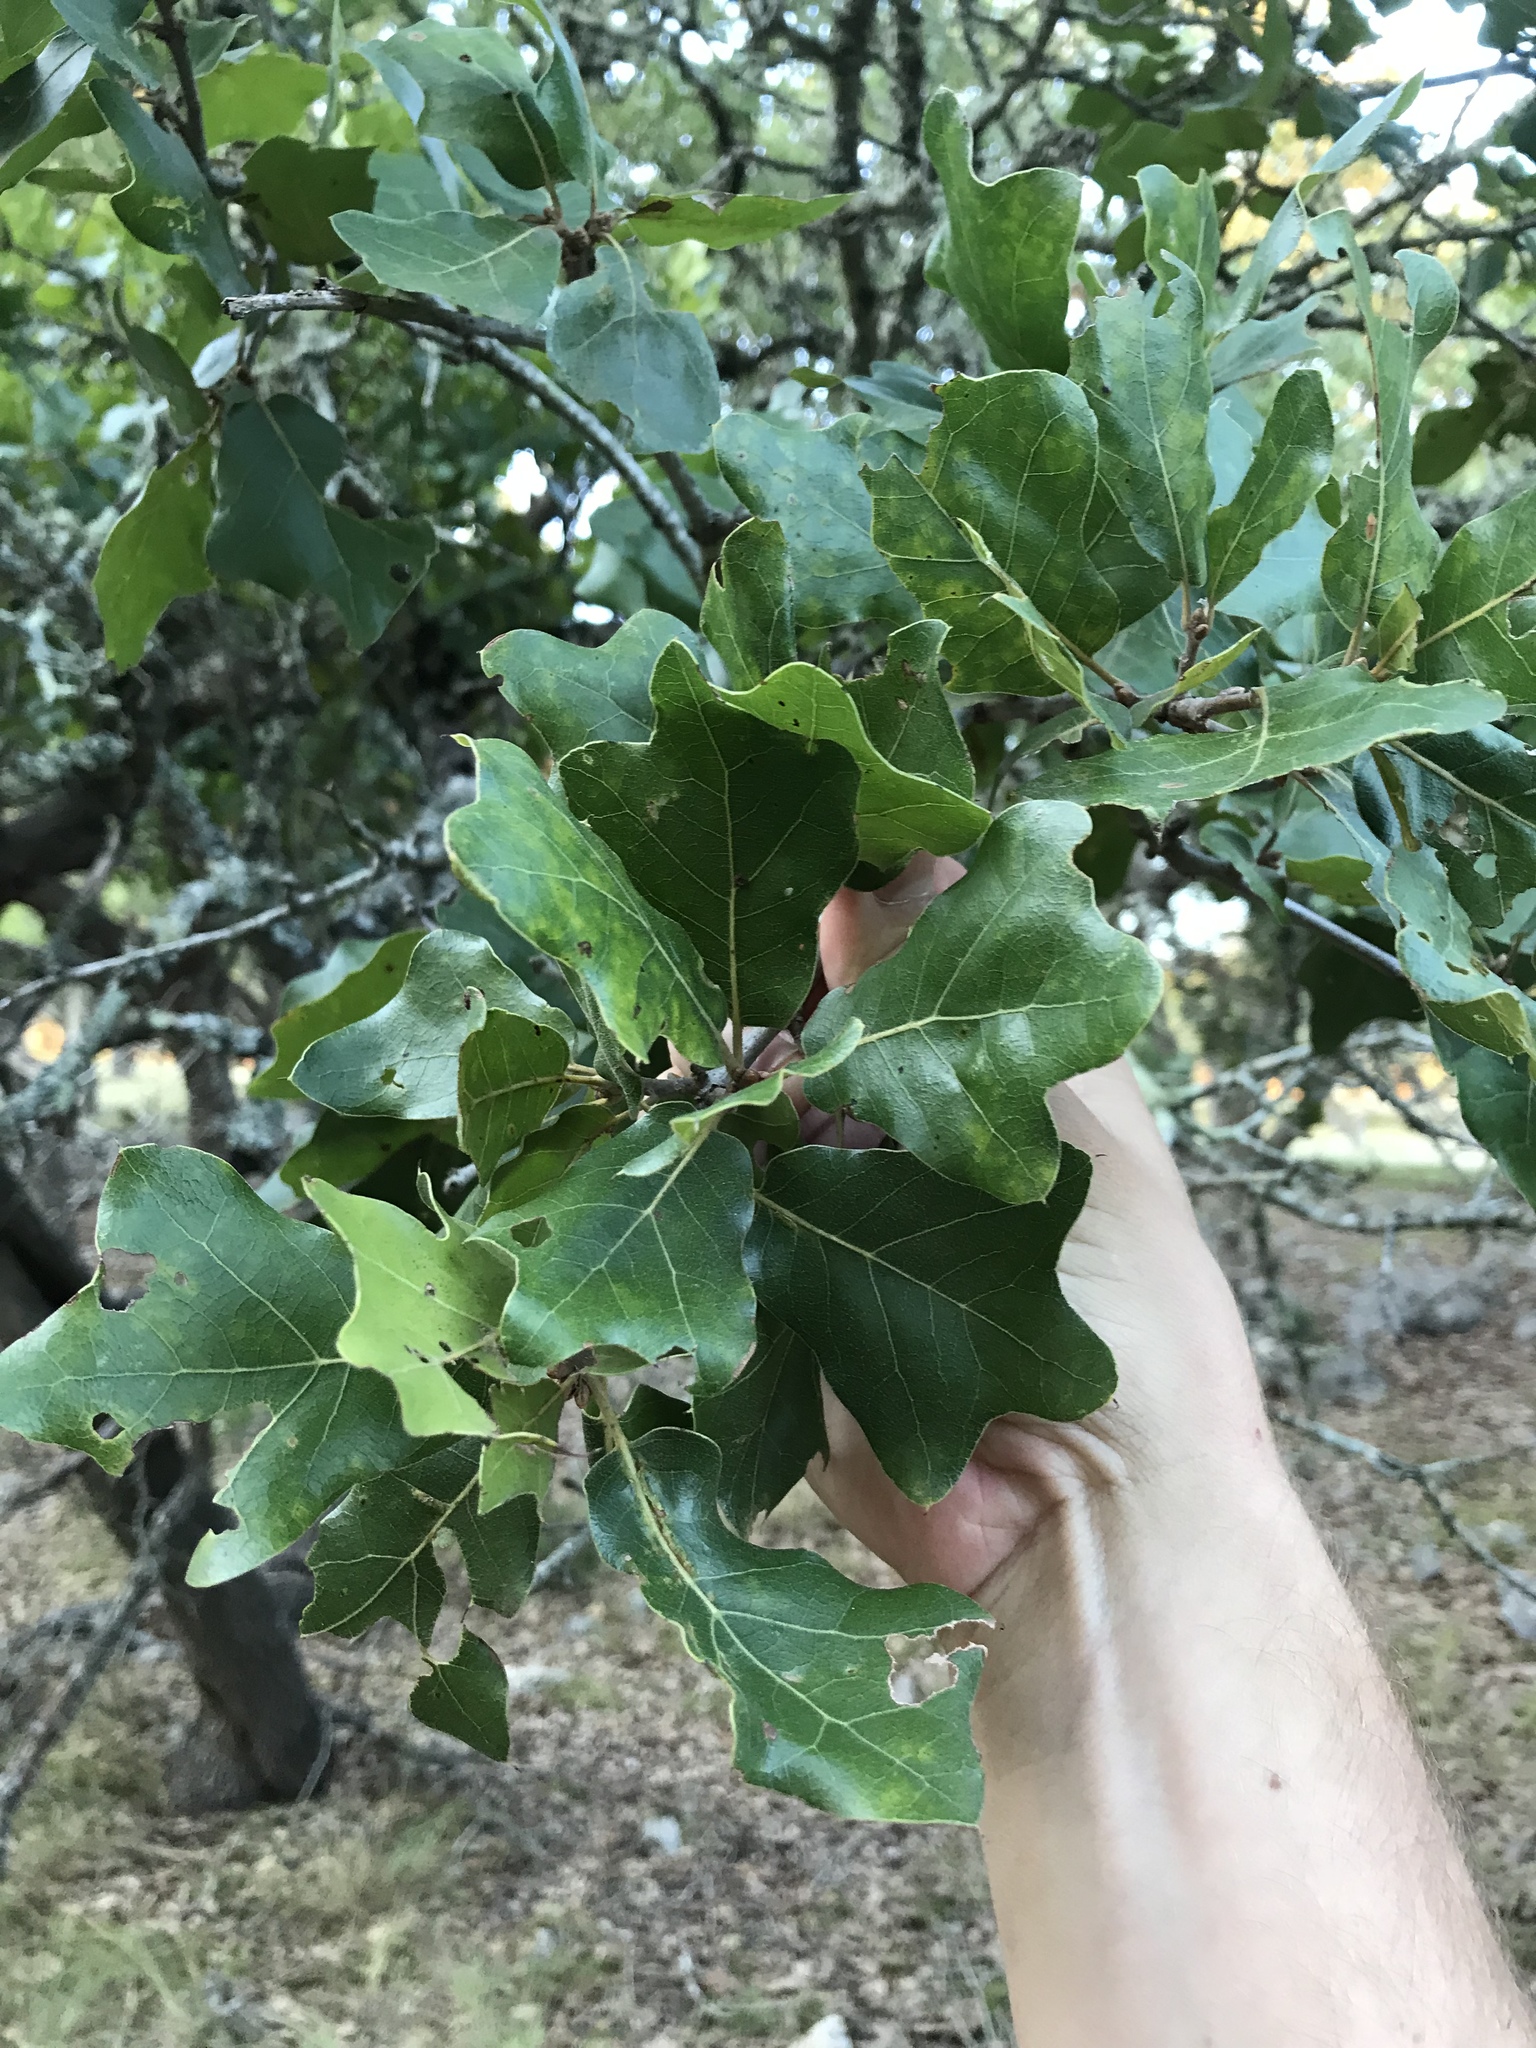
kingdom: Plantae
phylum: Tracheophyta
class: Magnoliopsida
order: Fagales
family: Fagaceae
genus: Quercus
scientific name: Quercus marilandica
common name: Blackjack oak
